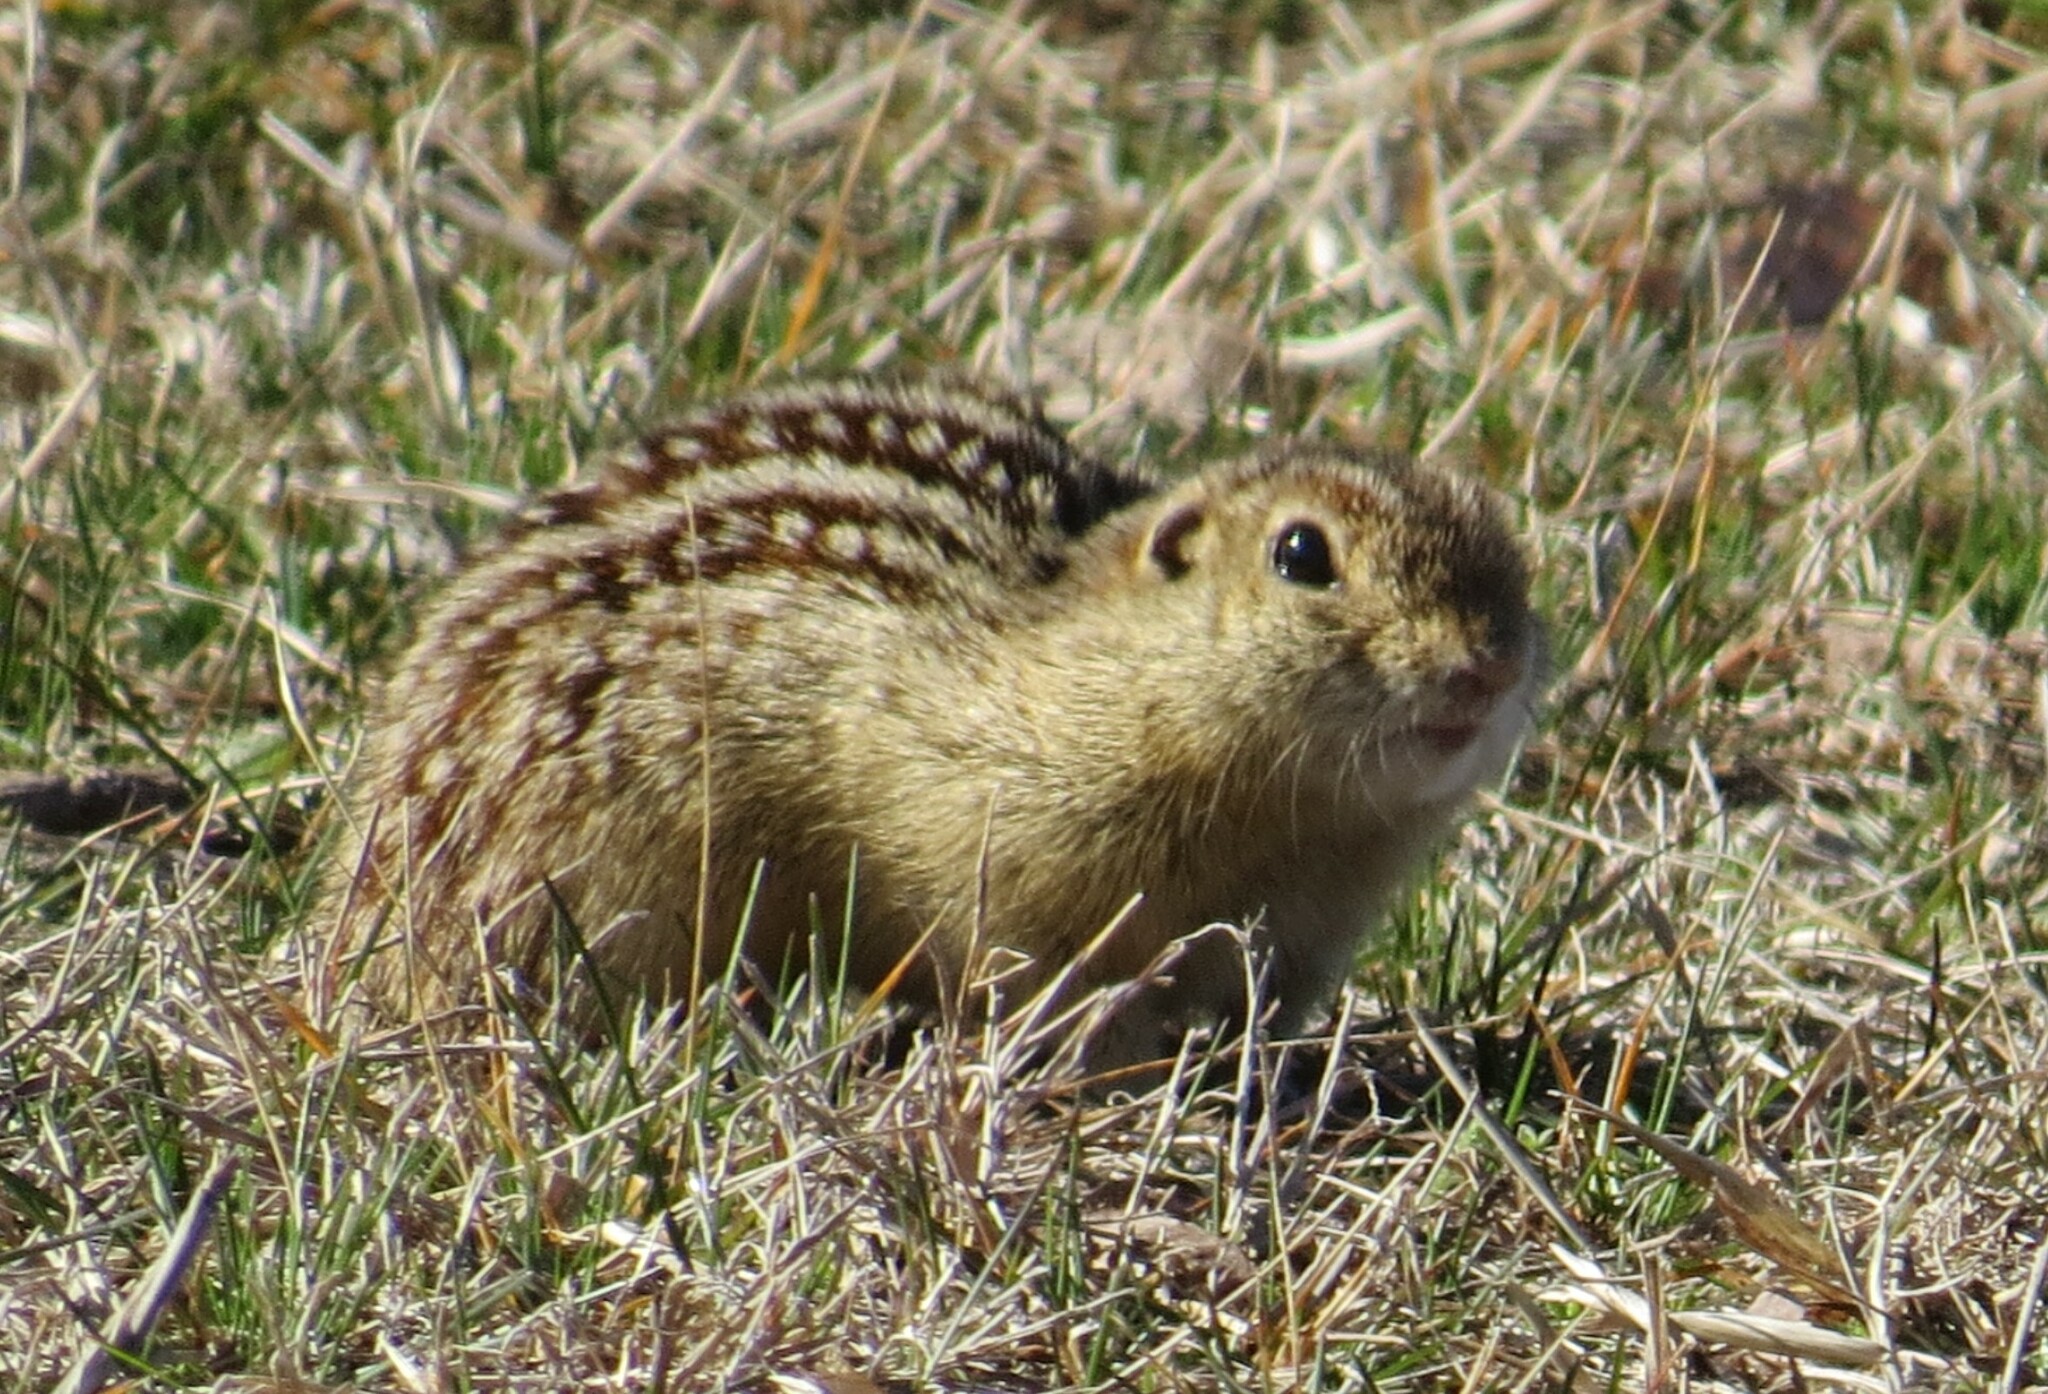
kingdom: Animalia
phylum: Chordata
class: Mammalia
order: Rodentia
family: Sciuridae
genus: Ictidomys
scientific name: Ictidomys tridecemlineatus
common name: Thirteen-lined ground squirrel
